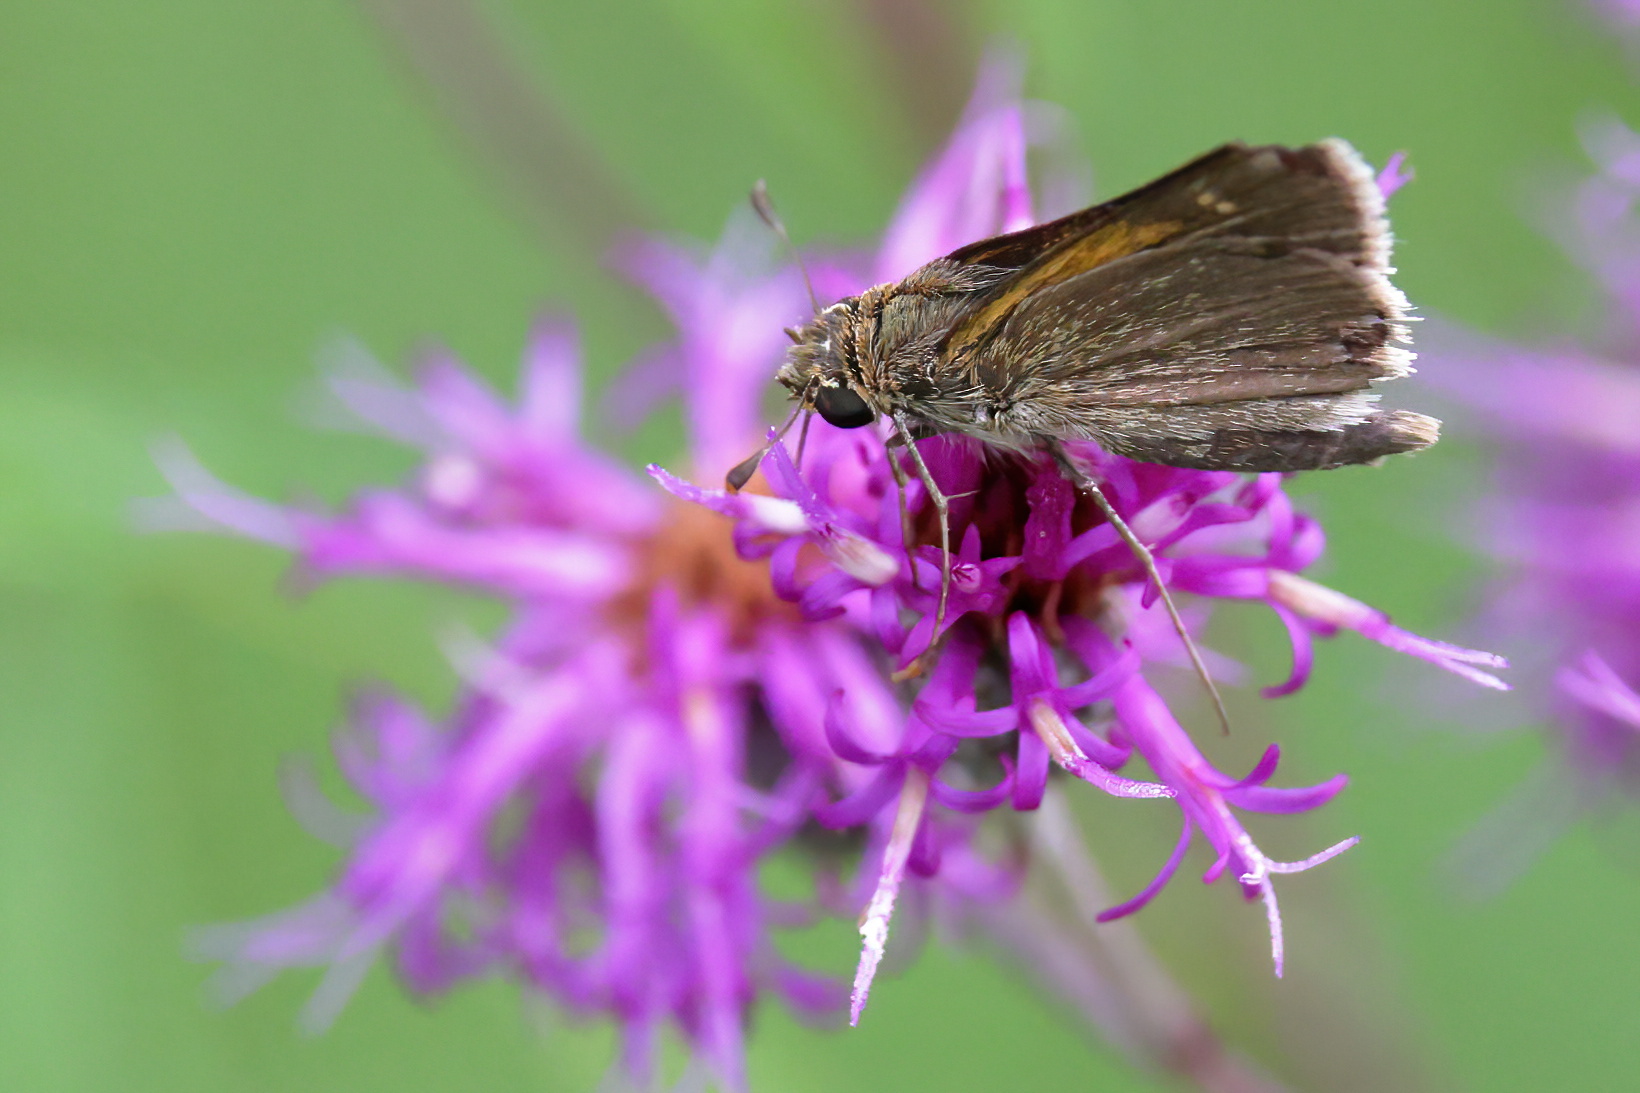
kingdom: Animalia
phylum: Arthropoda
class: Insecta
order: Lepidoptera
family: Hesperiidae
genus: Polites
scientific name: Polites themistocles
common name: Tawny-edged skipper
